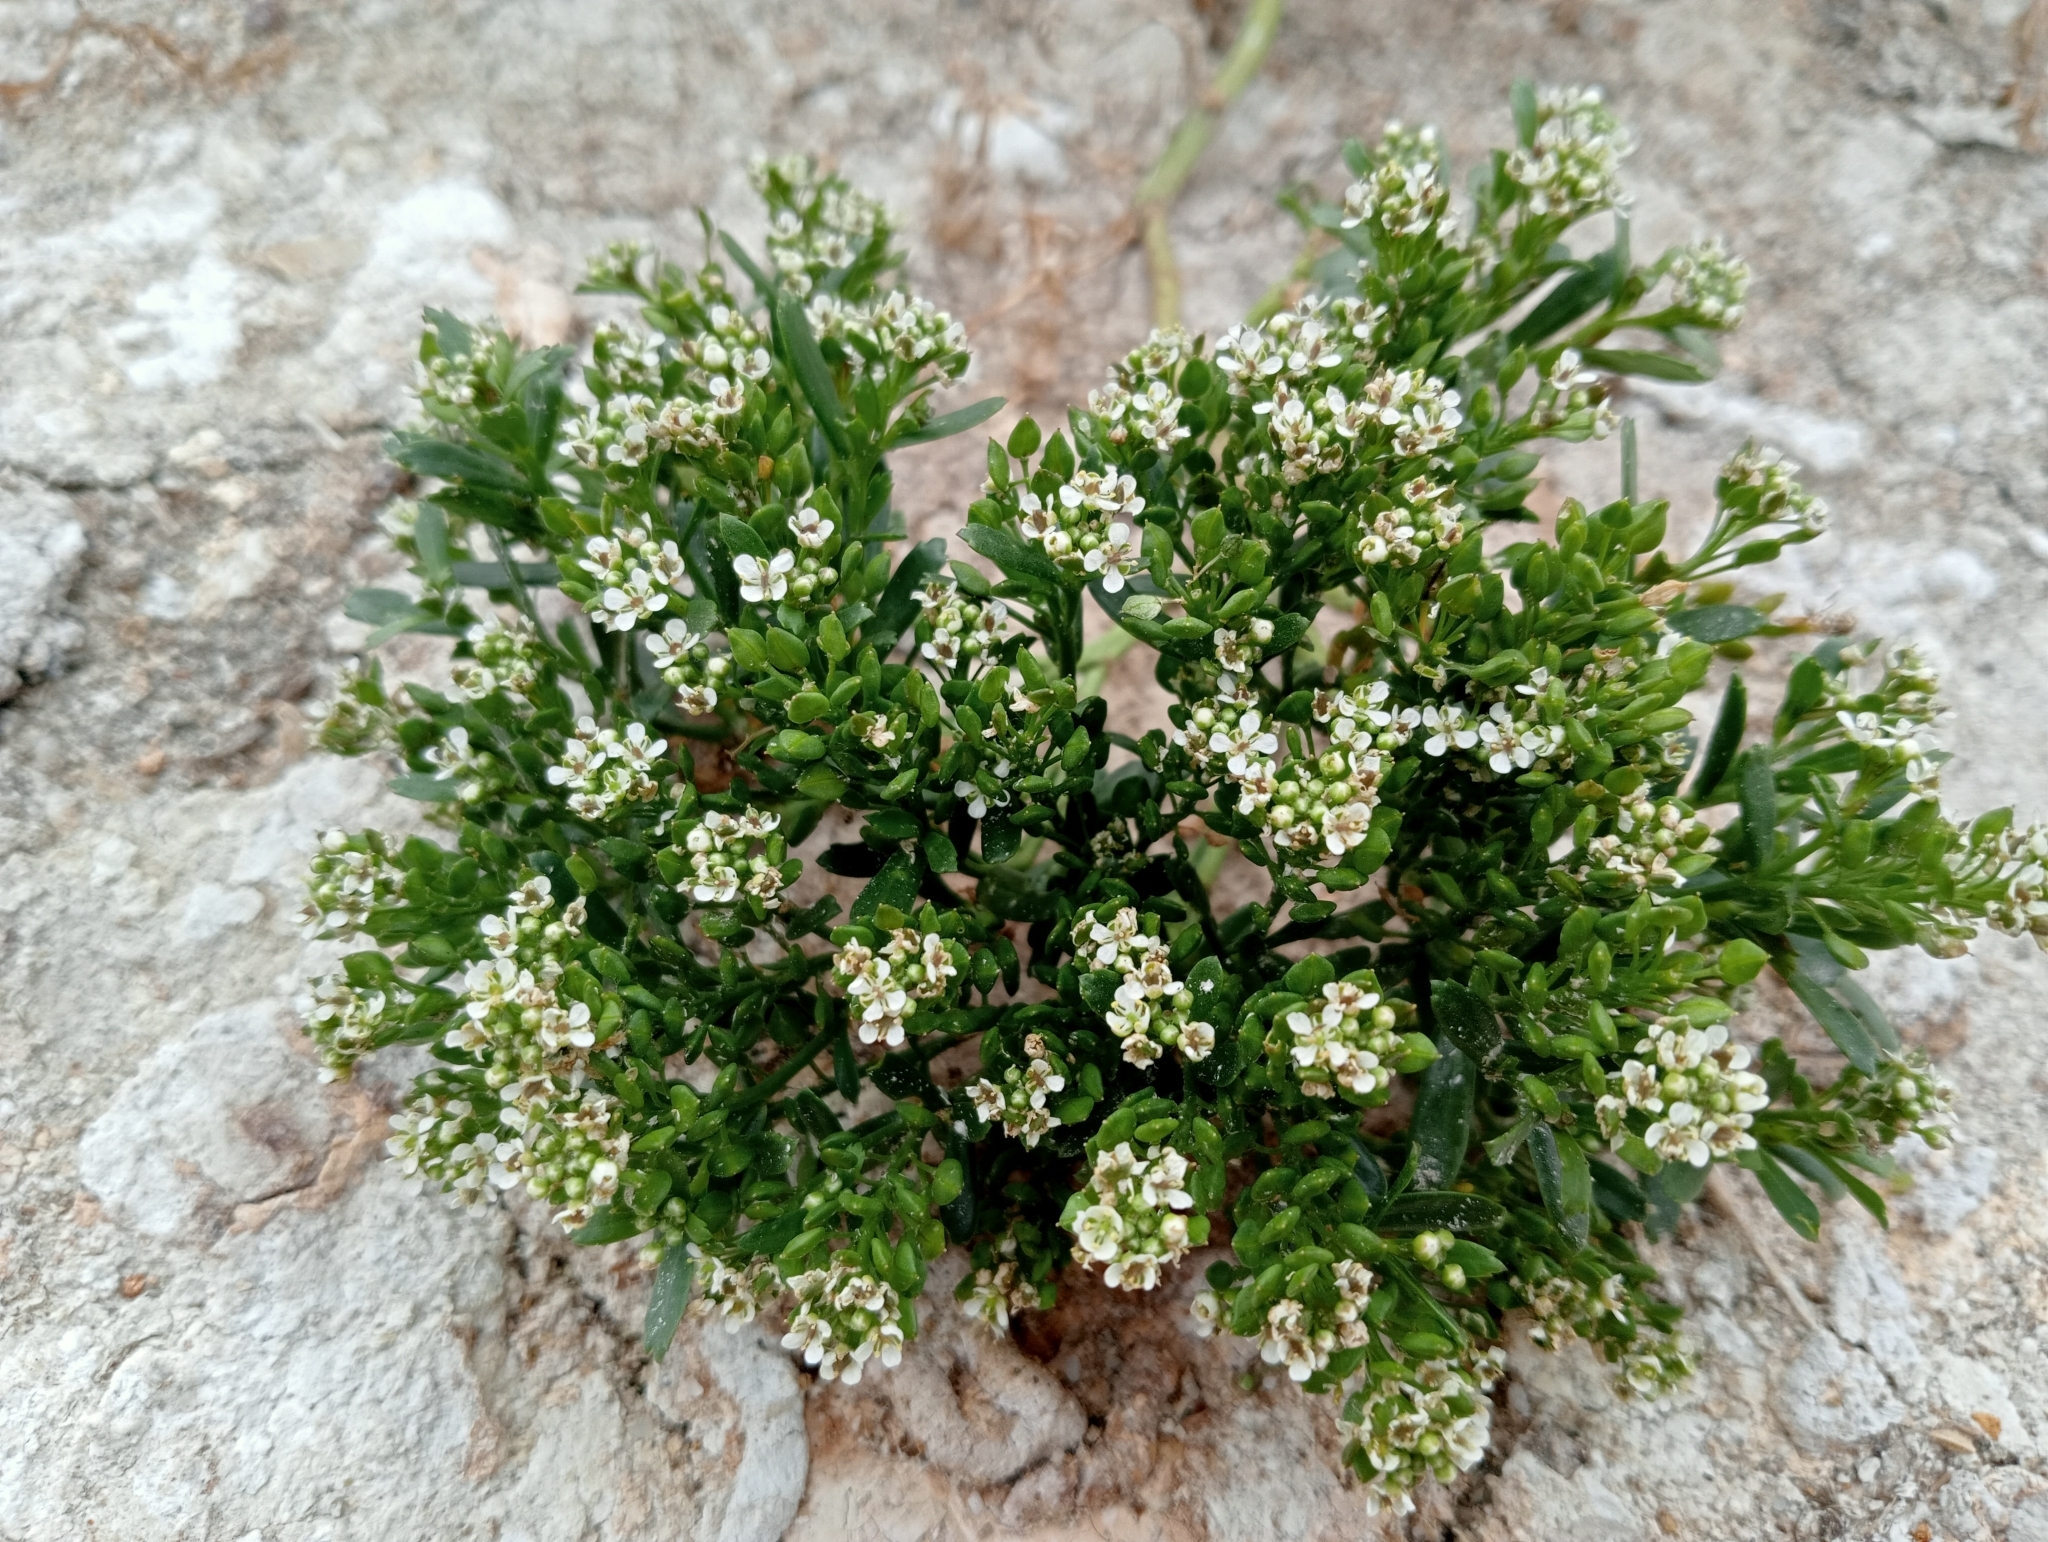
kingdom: Plantae
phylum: Tracheophyta
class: Magnoliopsida
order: Brassicales
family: Brassicaceae
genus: Lepidium
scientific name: Lepidium crassum
